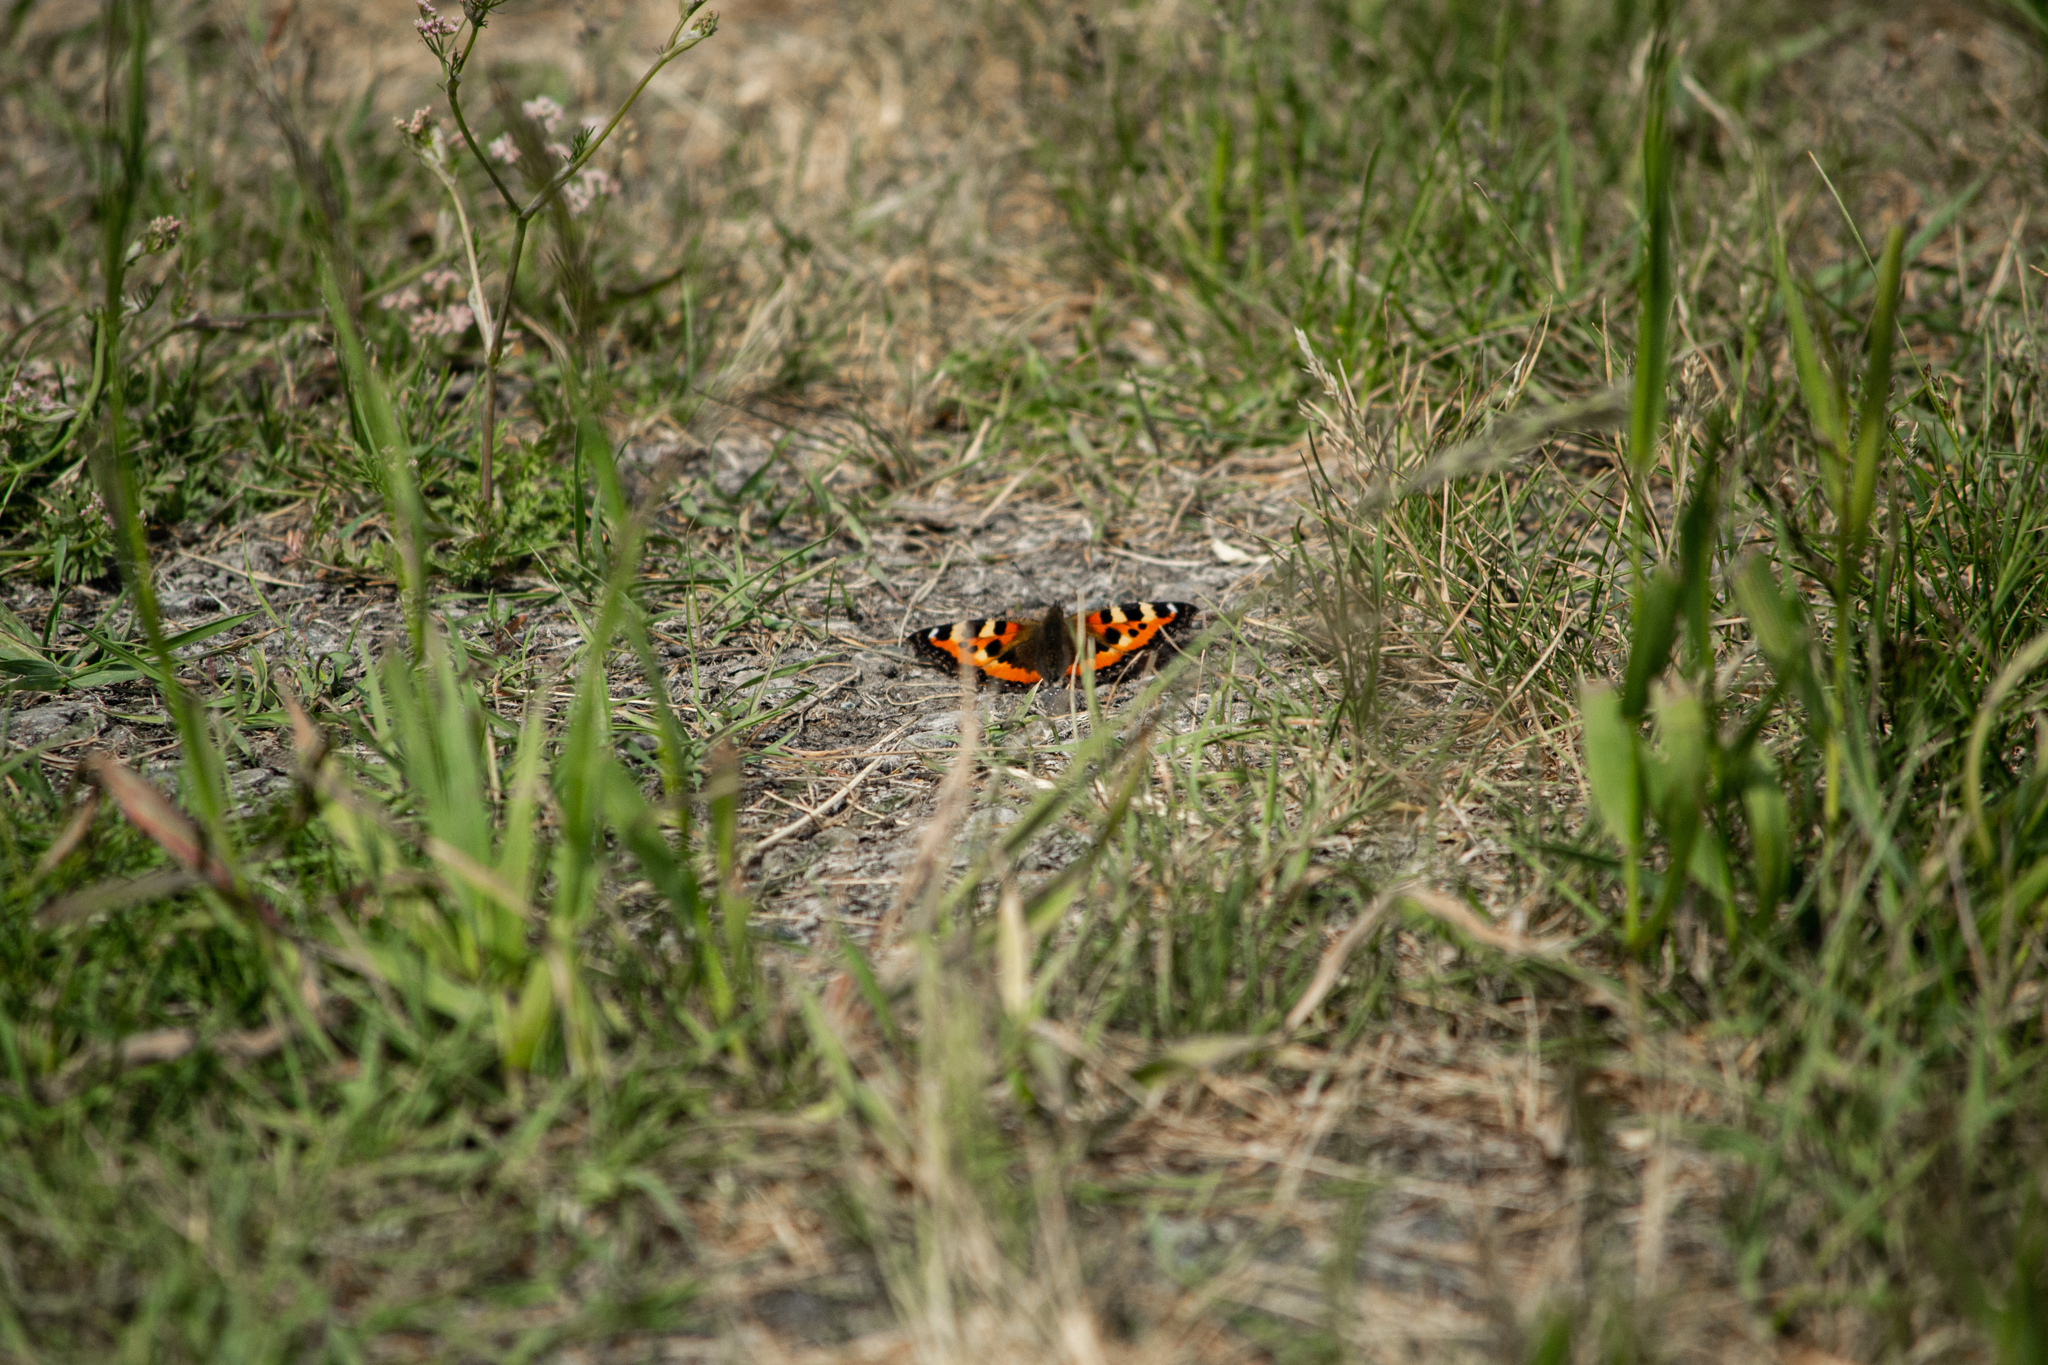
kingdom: Animalia
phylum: Arthropoda
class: Insecta
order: Lepidoptera
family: Nymphalidae
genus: Aglais
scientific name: Aglais urticae
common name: Small tortoiseshell
